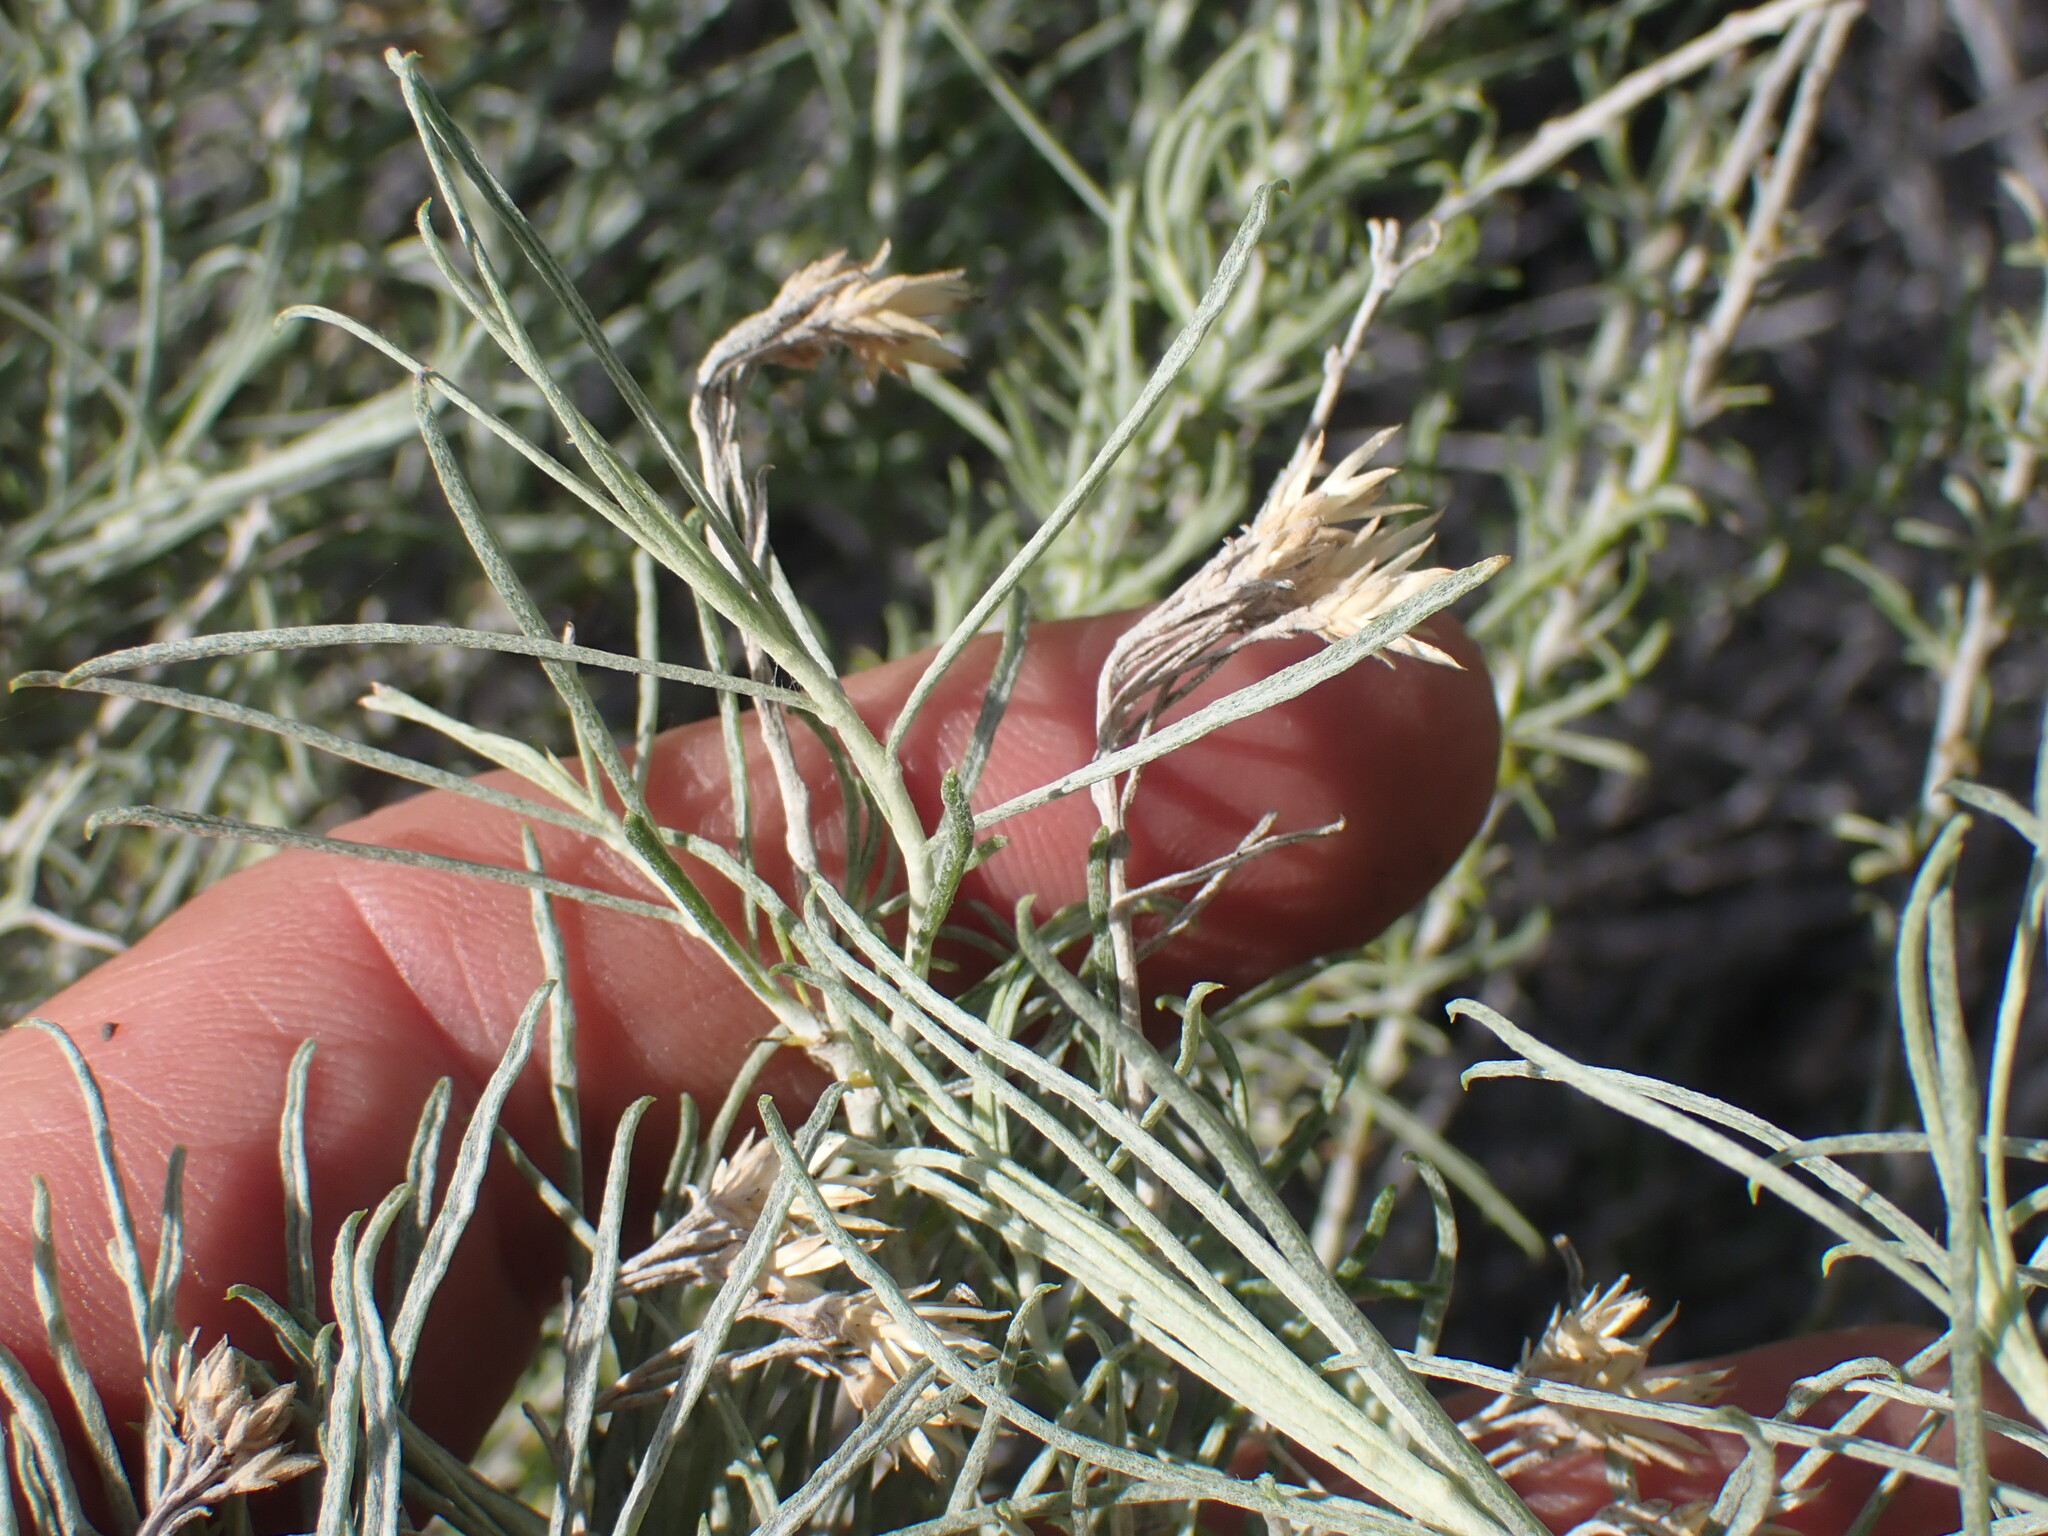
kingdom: Plantae
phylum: Tracheophyta
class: Magnoliopsida
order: Asterales
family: Asteraceae
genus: Ericameria
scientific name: Ericameria nauseosa
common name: Rubber rabbitbrush
